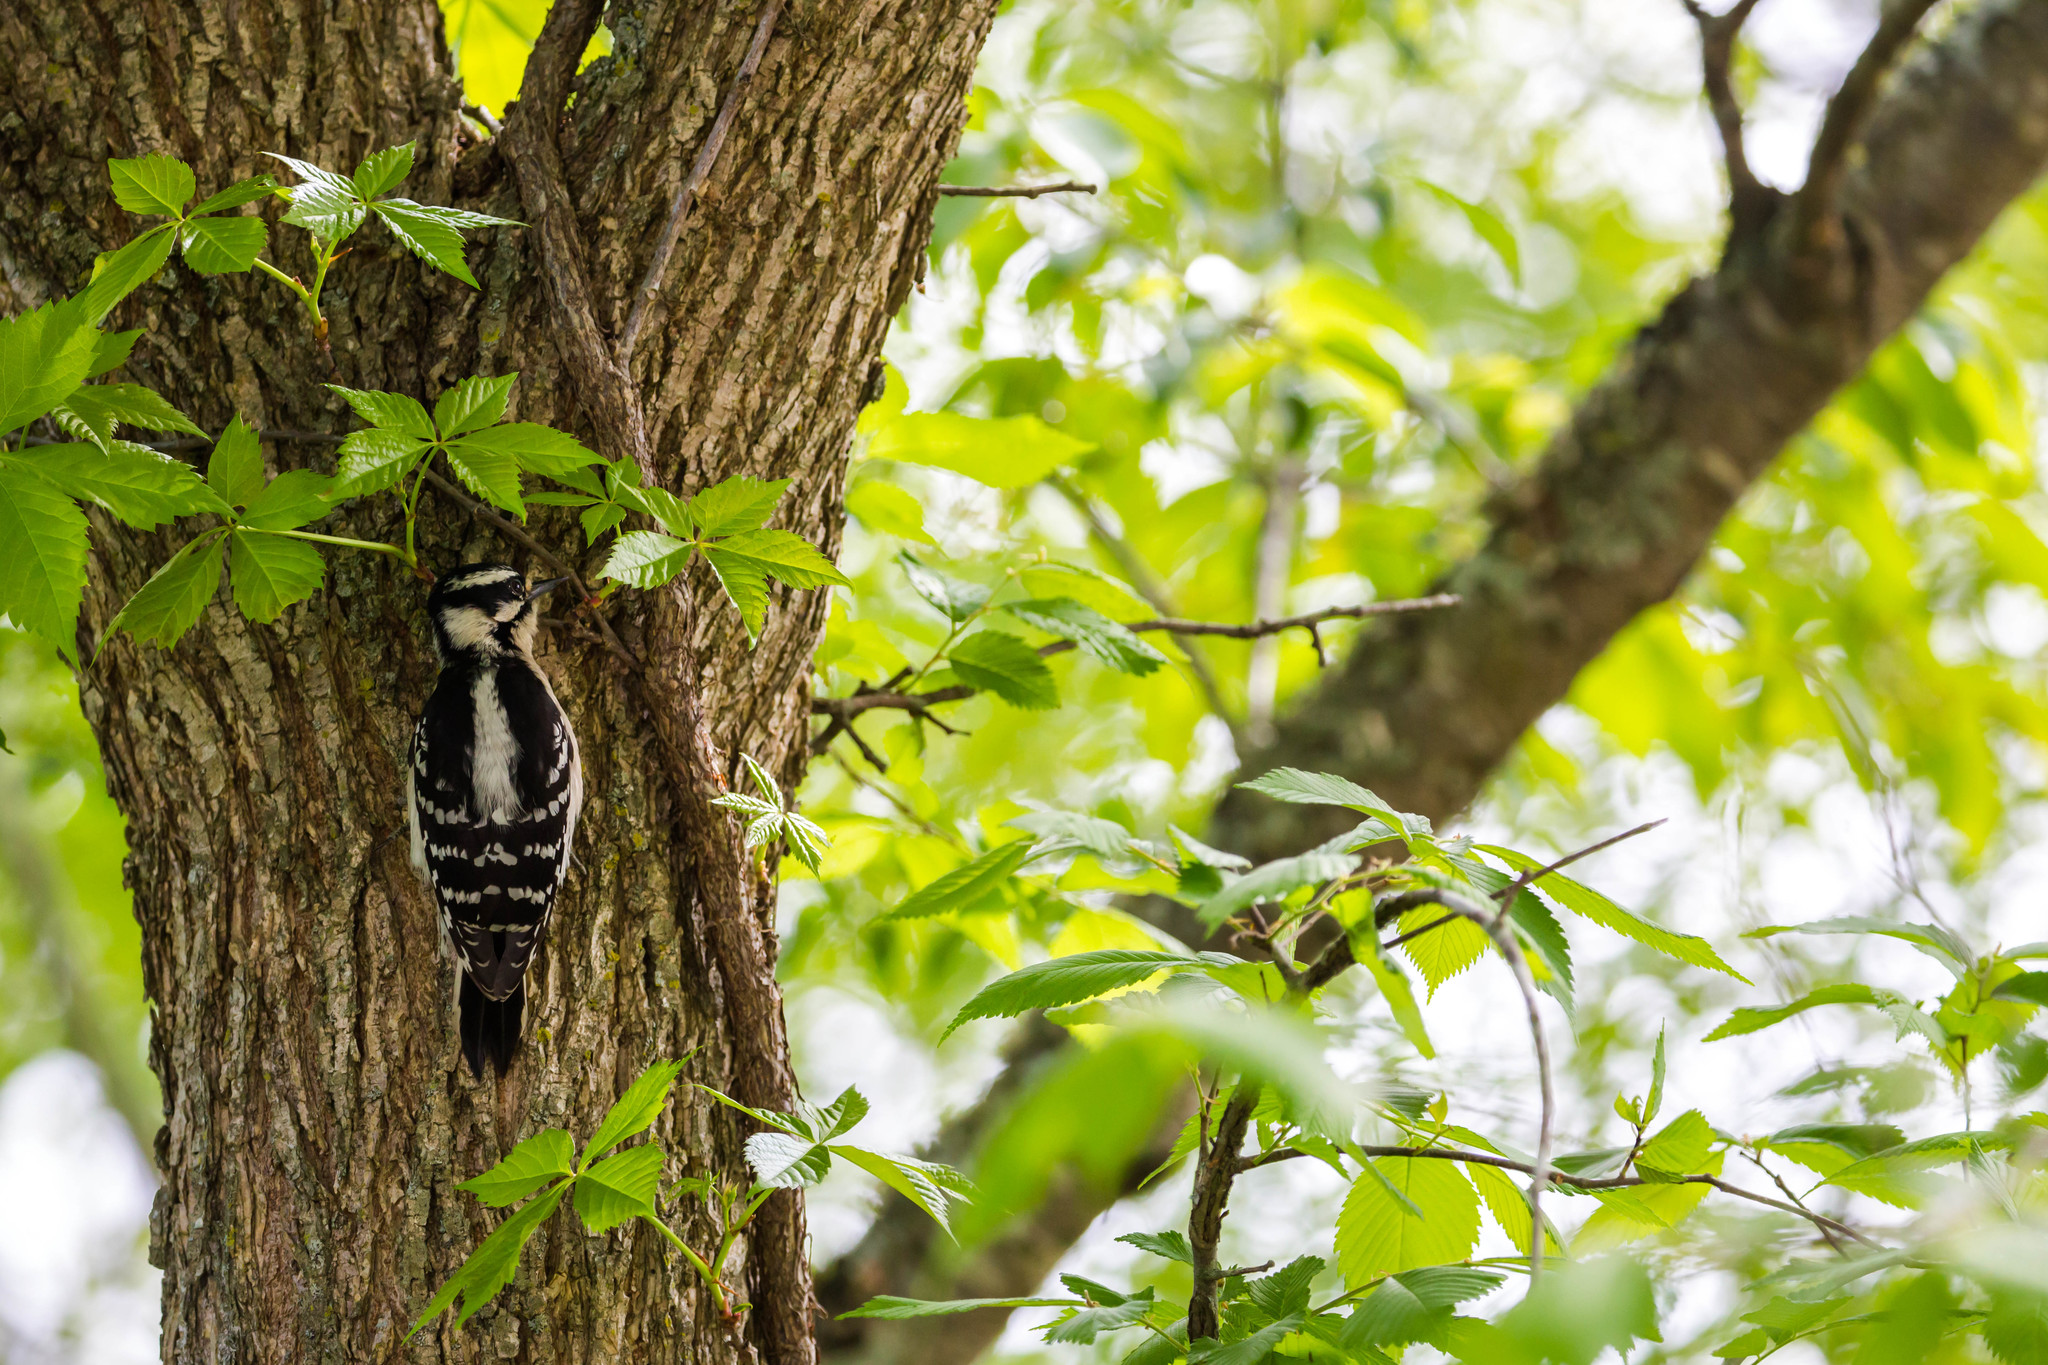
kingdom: Animalia
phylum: Chordata
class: Aves
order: Piciformes
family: Picidae
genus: Dryobates
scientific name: Dryobates pubescens
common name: Downy woodpecker
